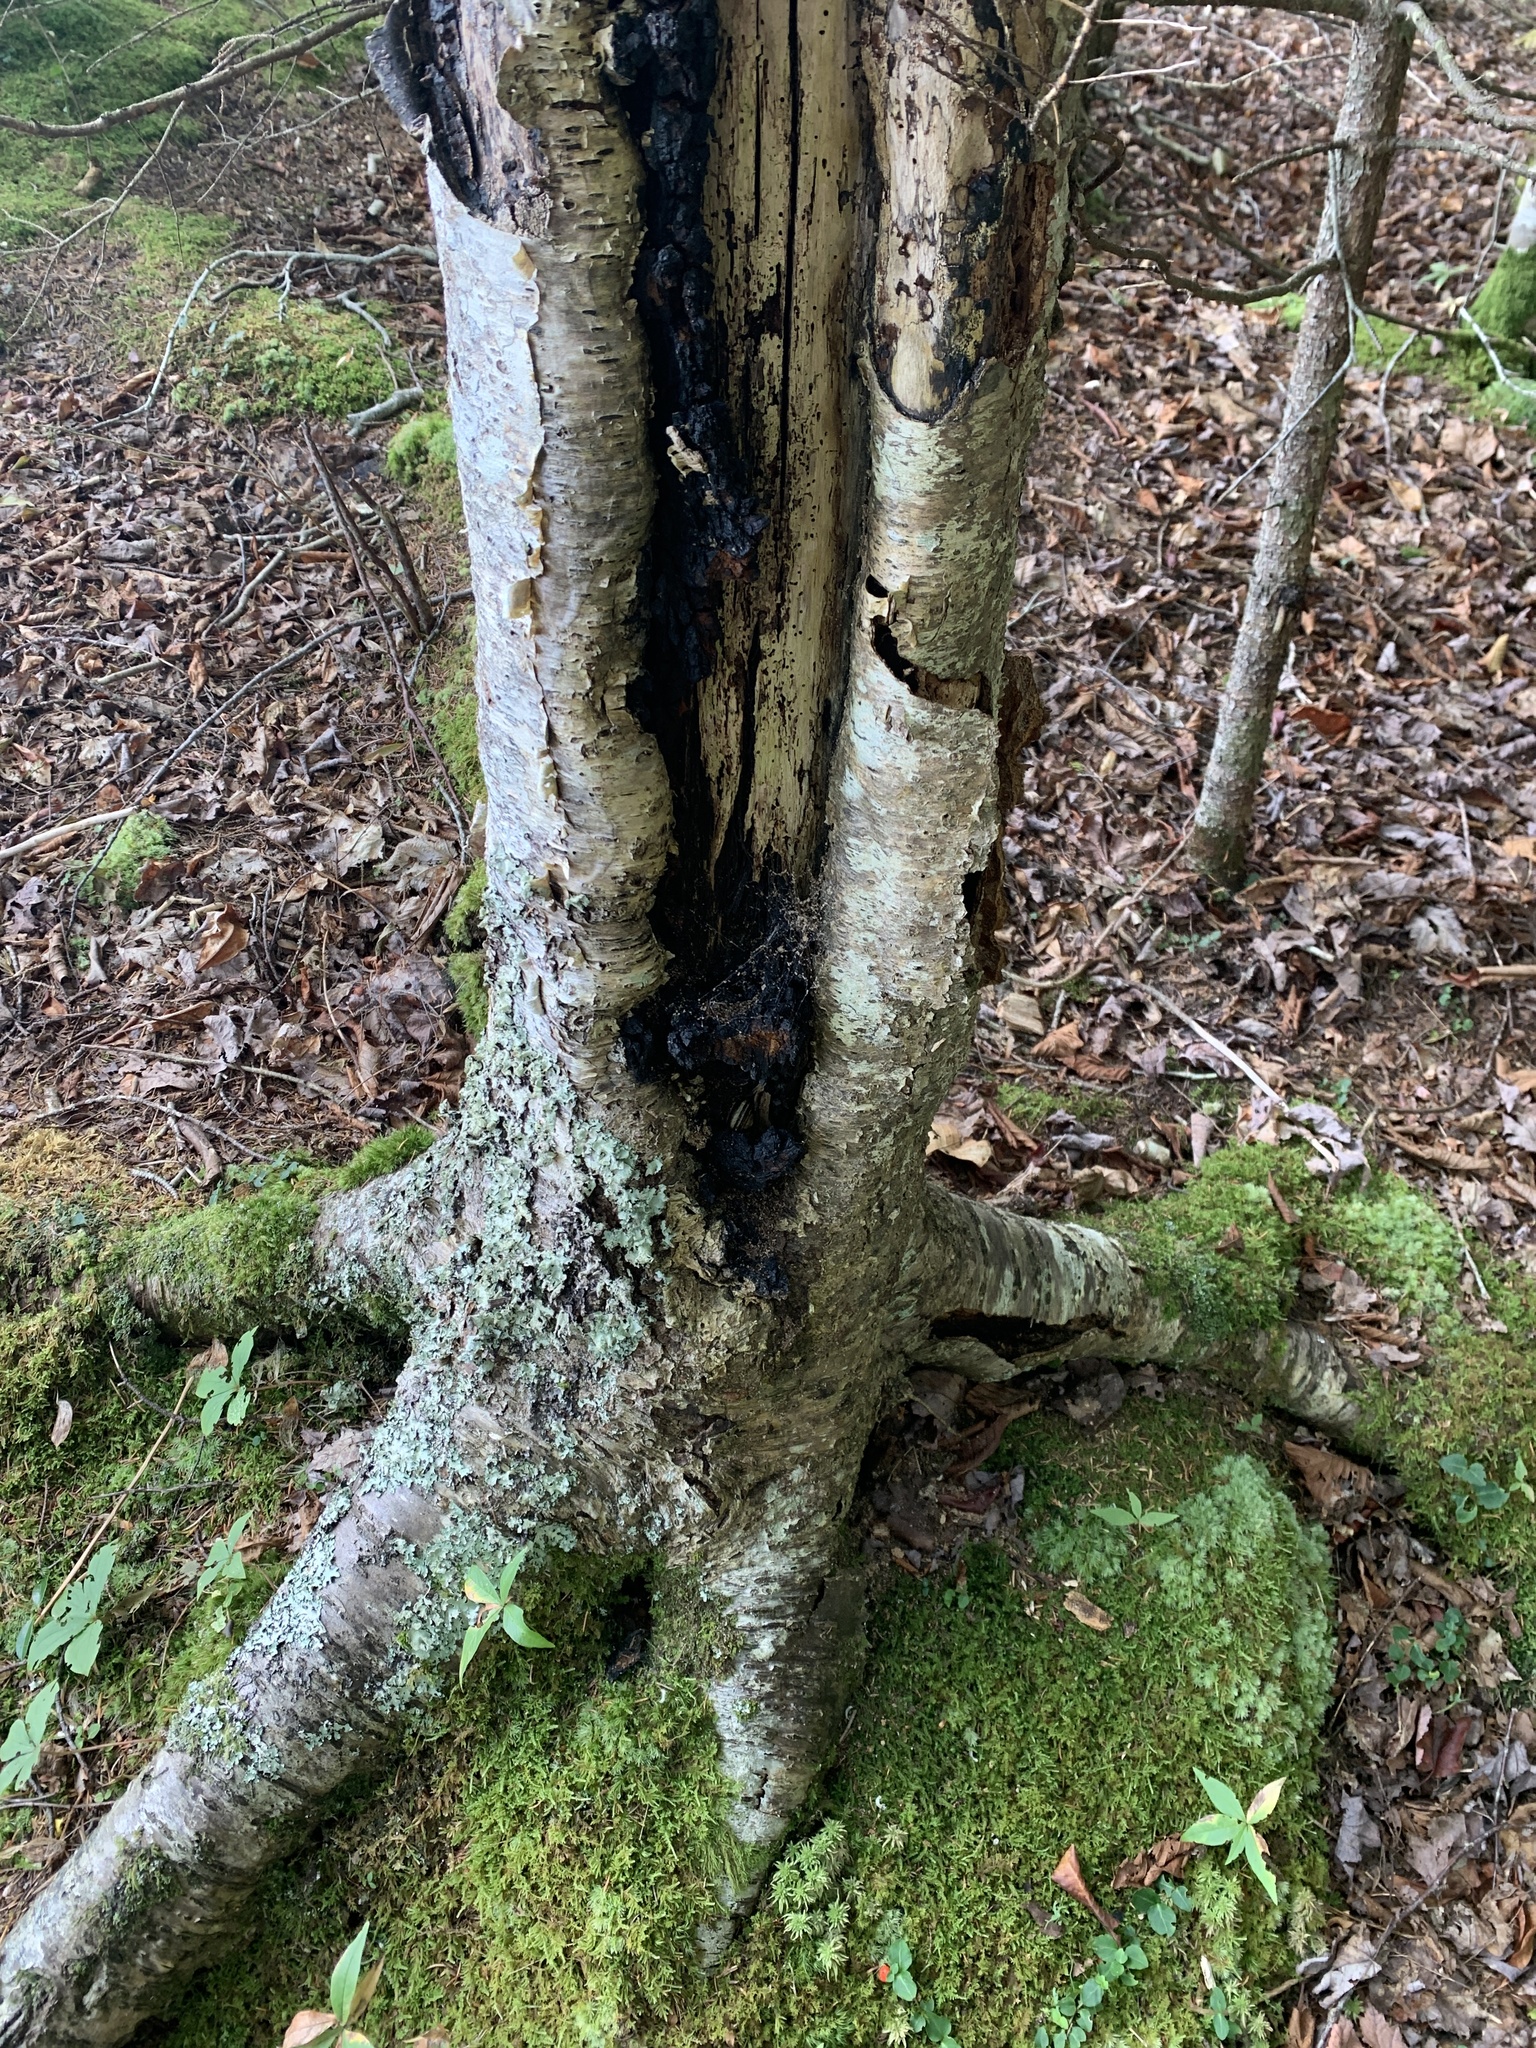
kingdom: Fungi
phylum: Basidiomycota
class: Agaricomycetes
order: Hymenochaetales
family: Hymenochaetaceae
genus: Inonotus
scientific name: Inonotus obliquus
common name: Chaga
